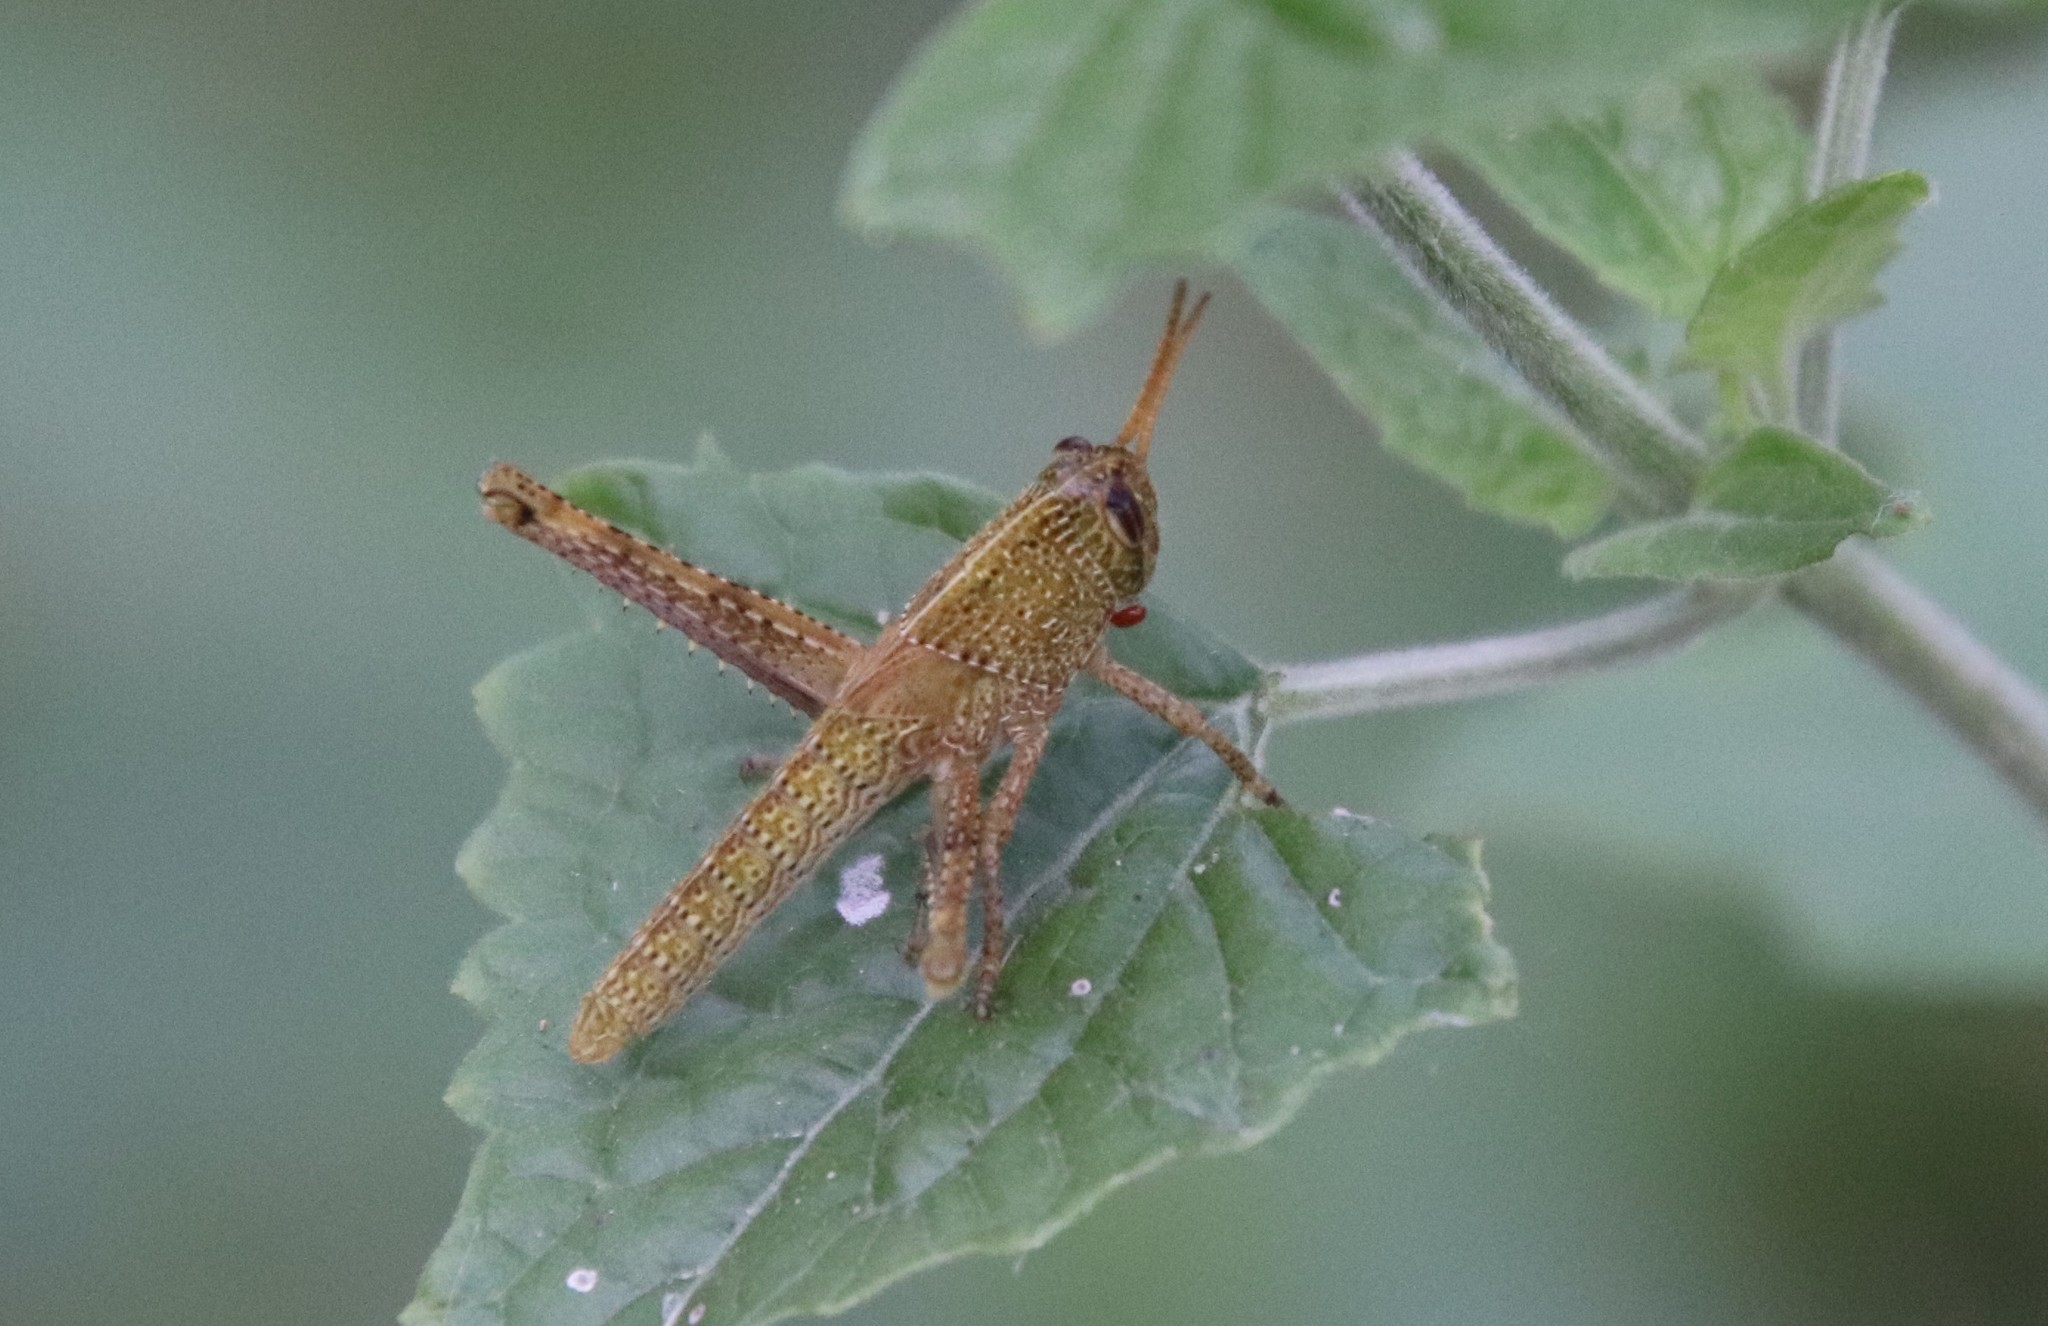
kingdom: Animalia
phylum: Arthropoda
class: Insecta
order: Orthoptera
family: Acrididae
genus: Schistocerca
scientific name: Schistocerca impleta
